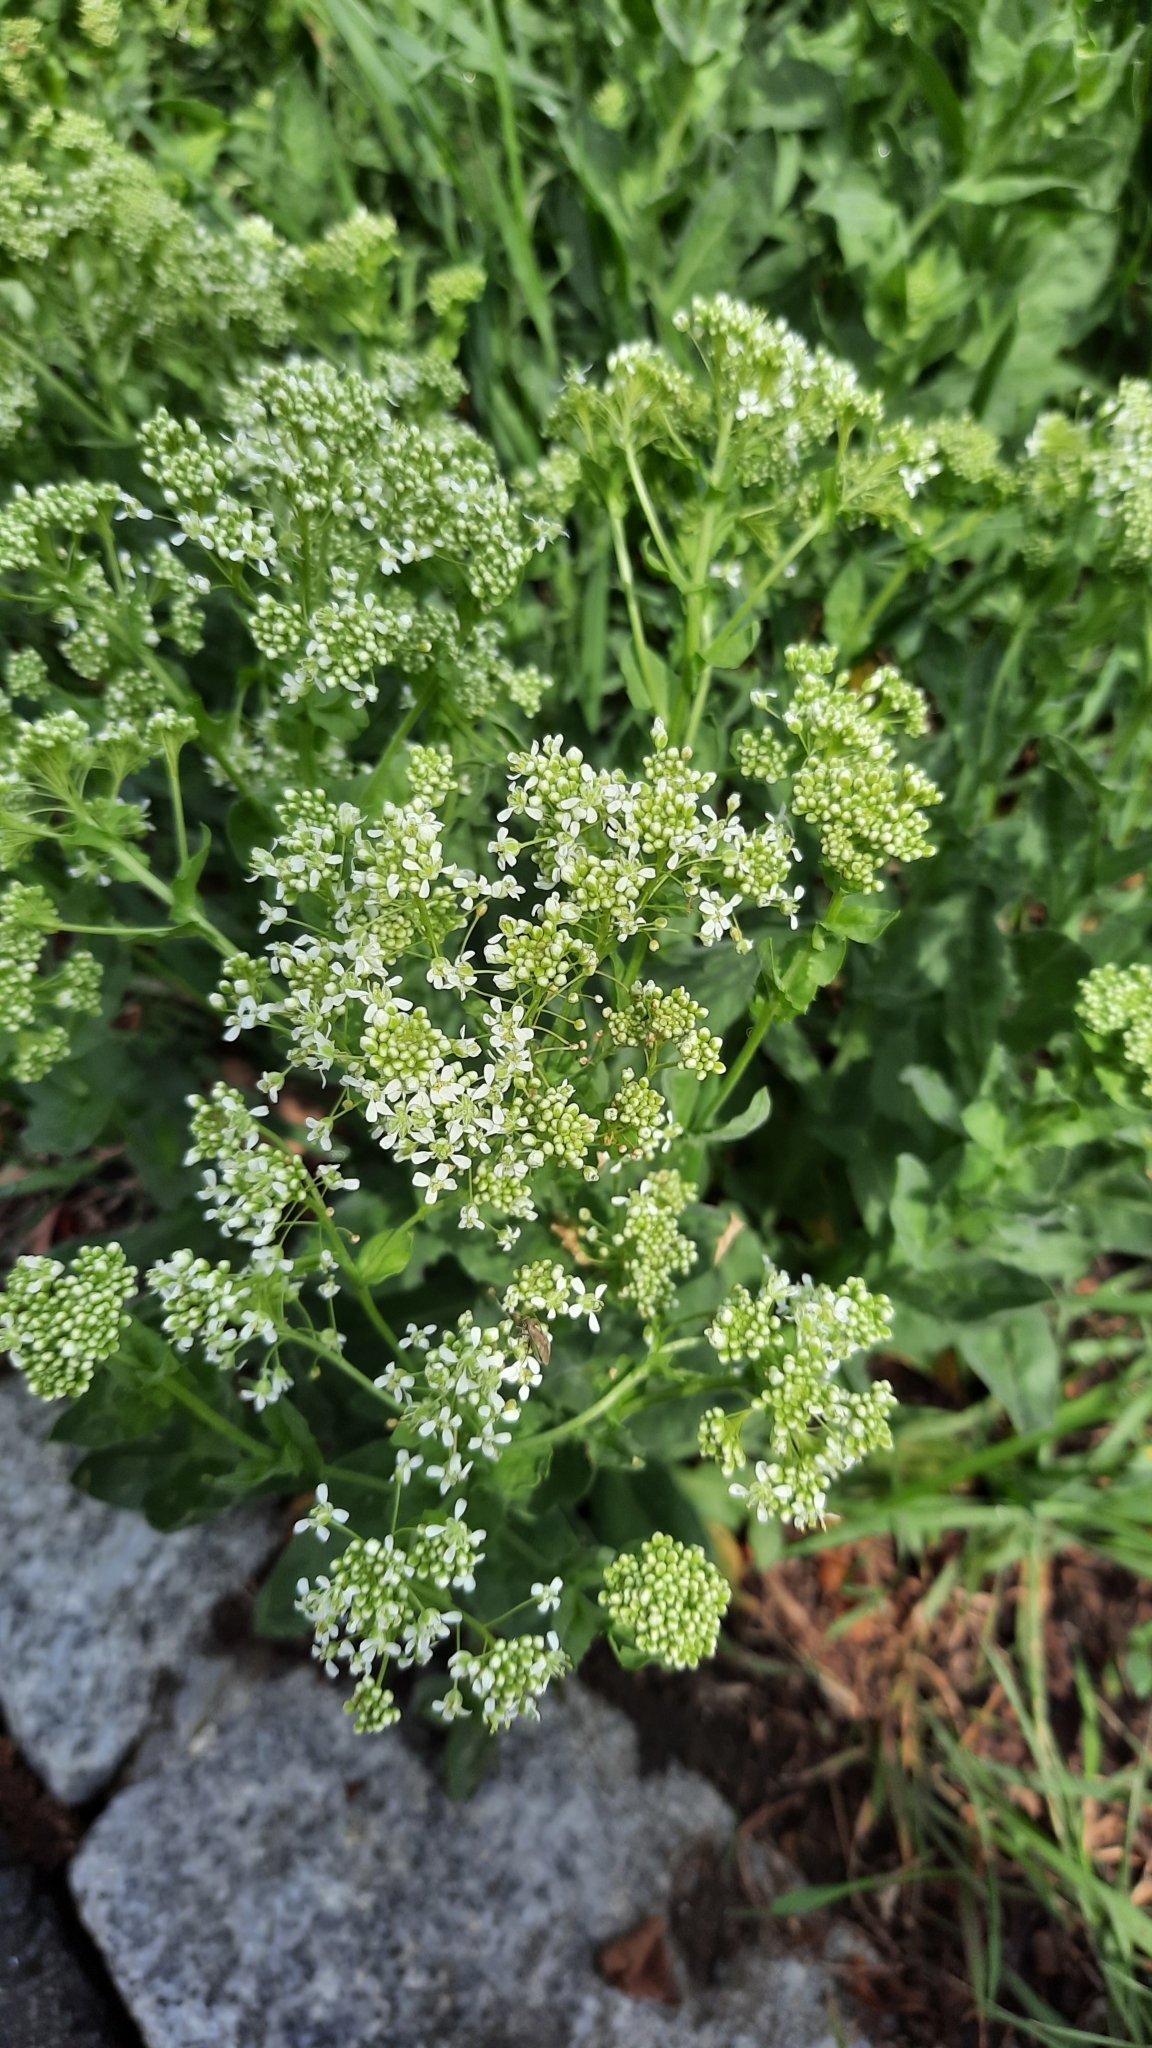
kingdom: Plantae
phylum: Tracheophyta
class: Magnoliopsida
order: Brassicales
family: Brassicaceae
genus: Lepidium
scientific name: Lepidium draba
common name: Hoary cress
